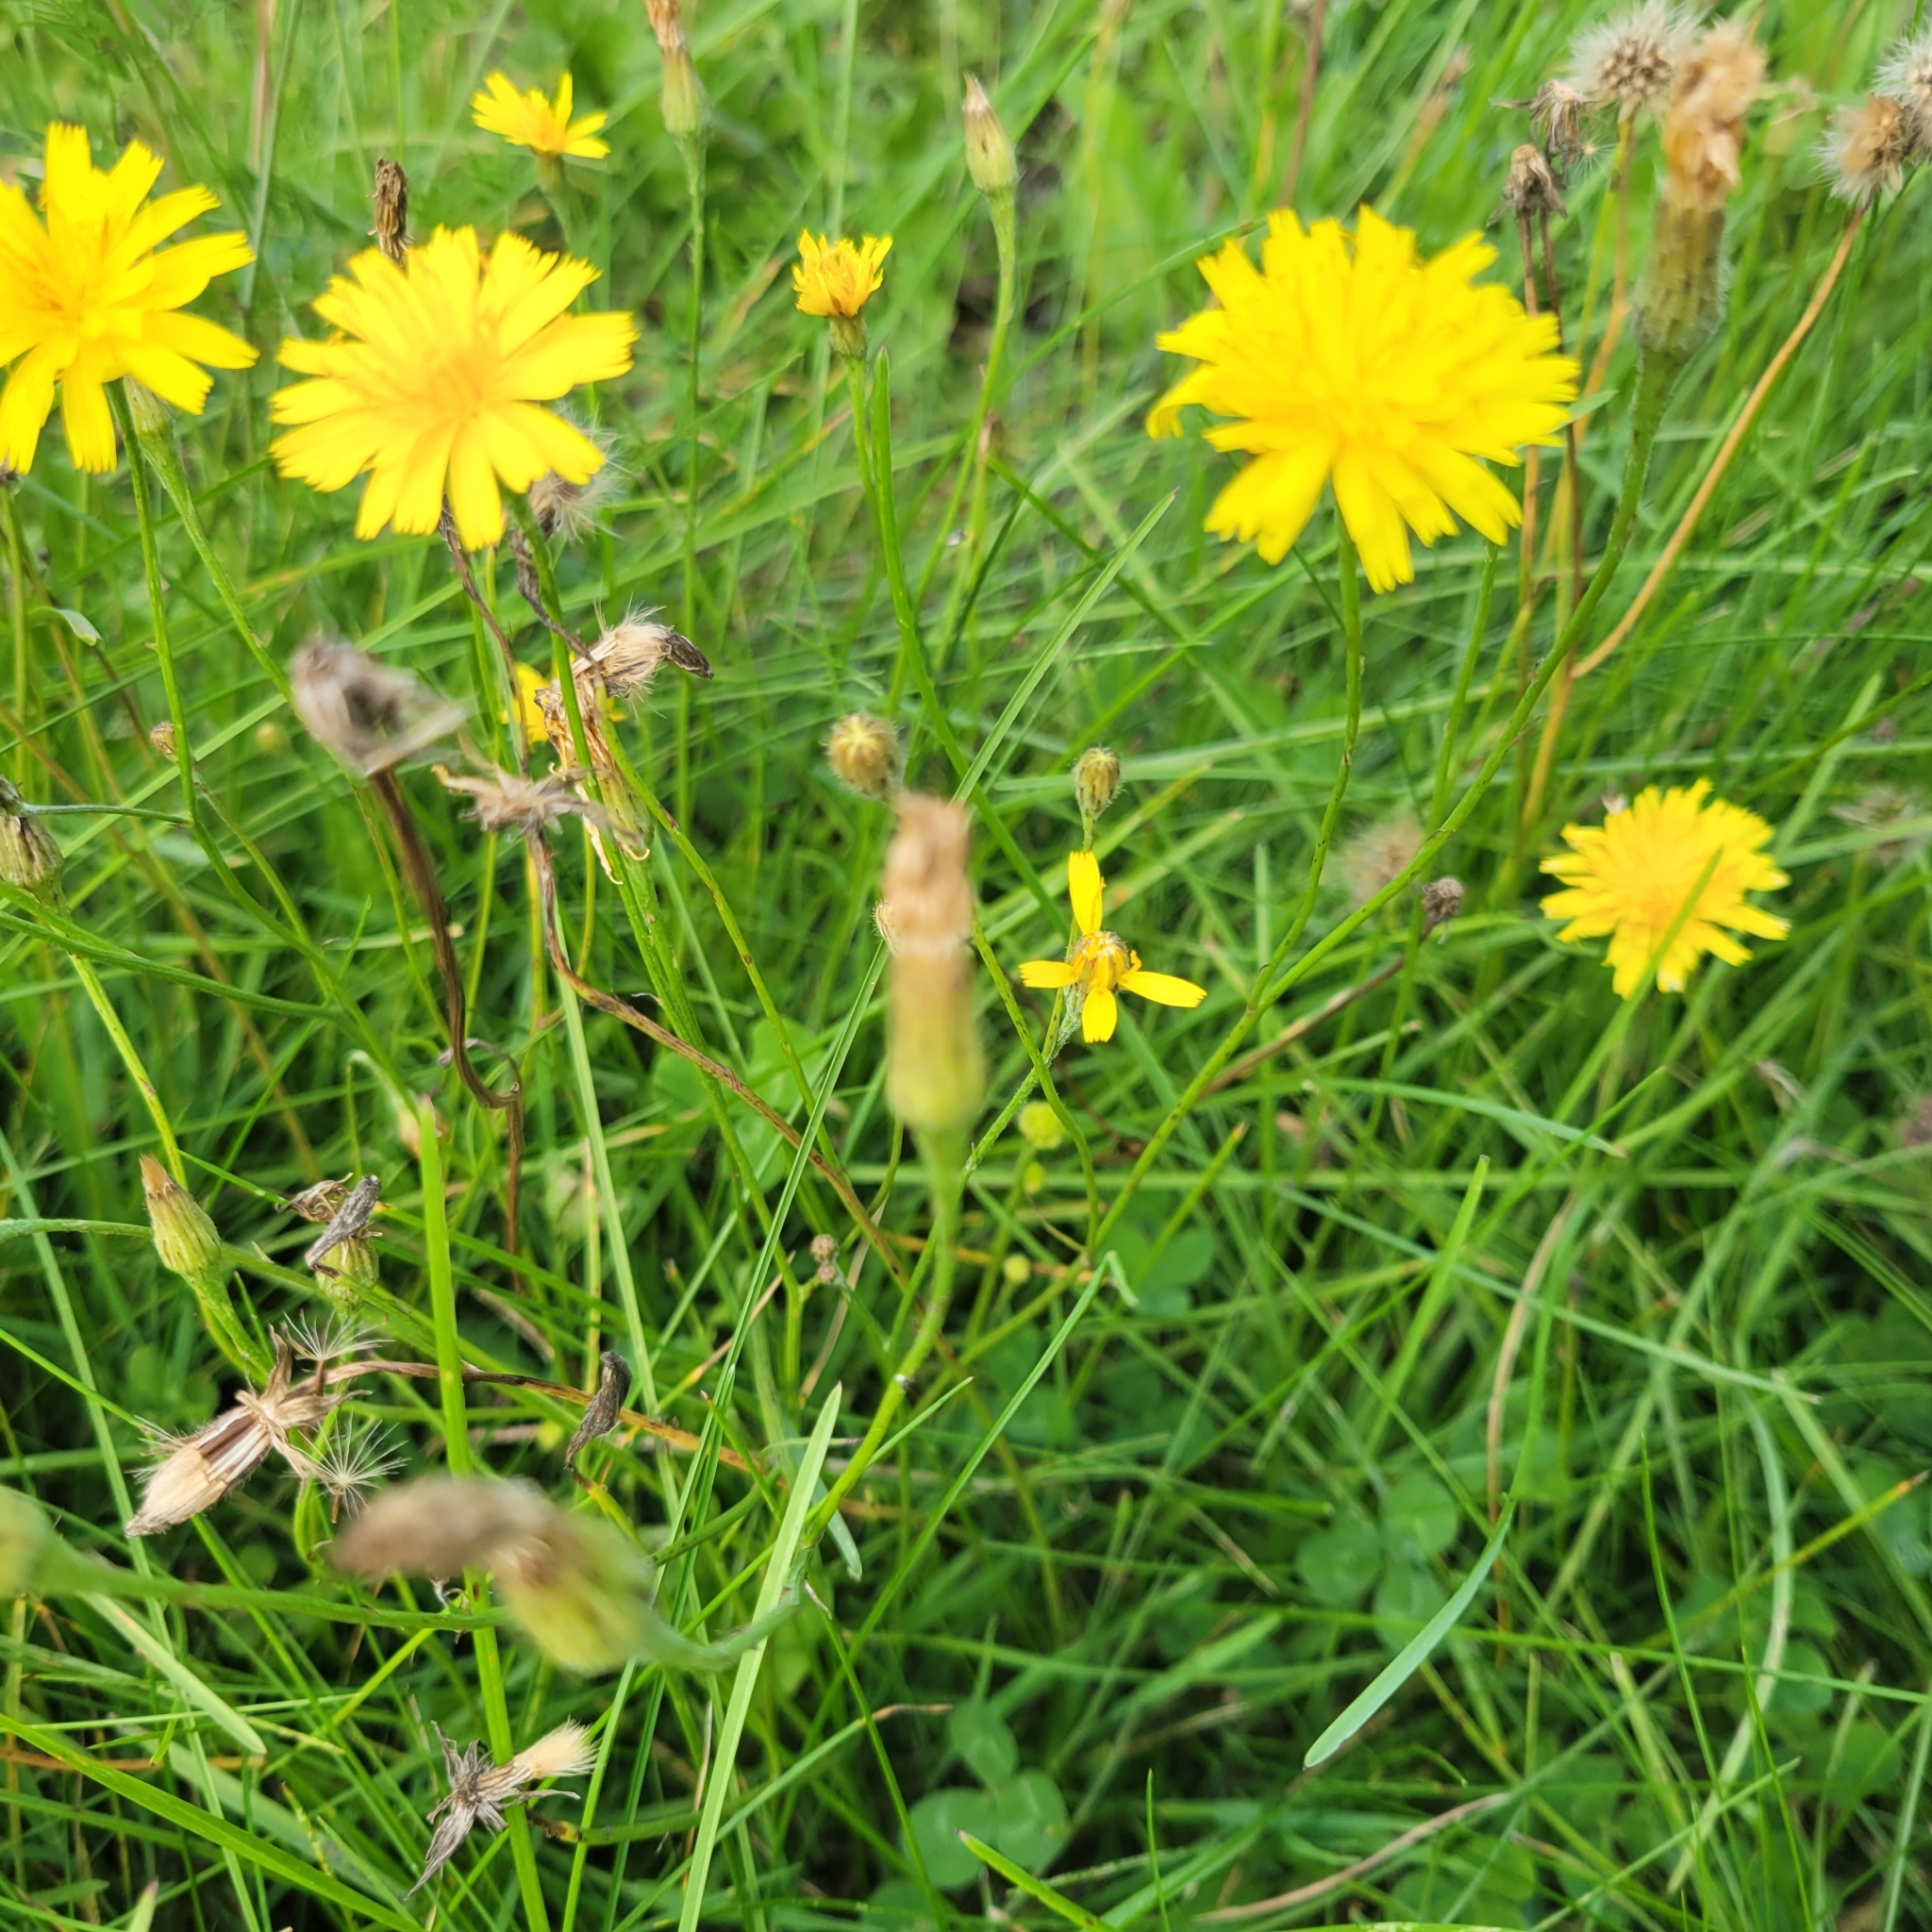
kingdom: Plantae
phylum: Tracheophyta
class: Magnoliopsida
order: Asterales
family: Asteraceae
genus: Scorzoneroides
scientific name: Scorzoneroides autumnalis
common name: Autumn hawkbit
